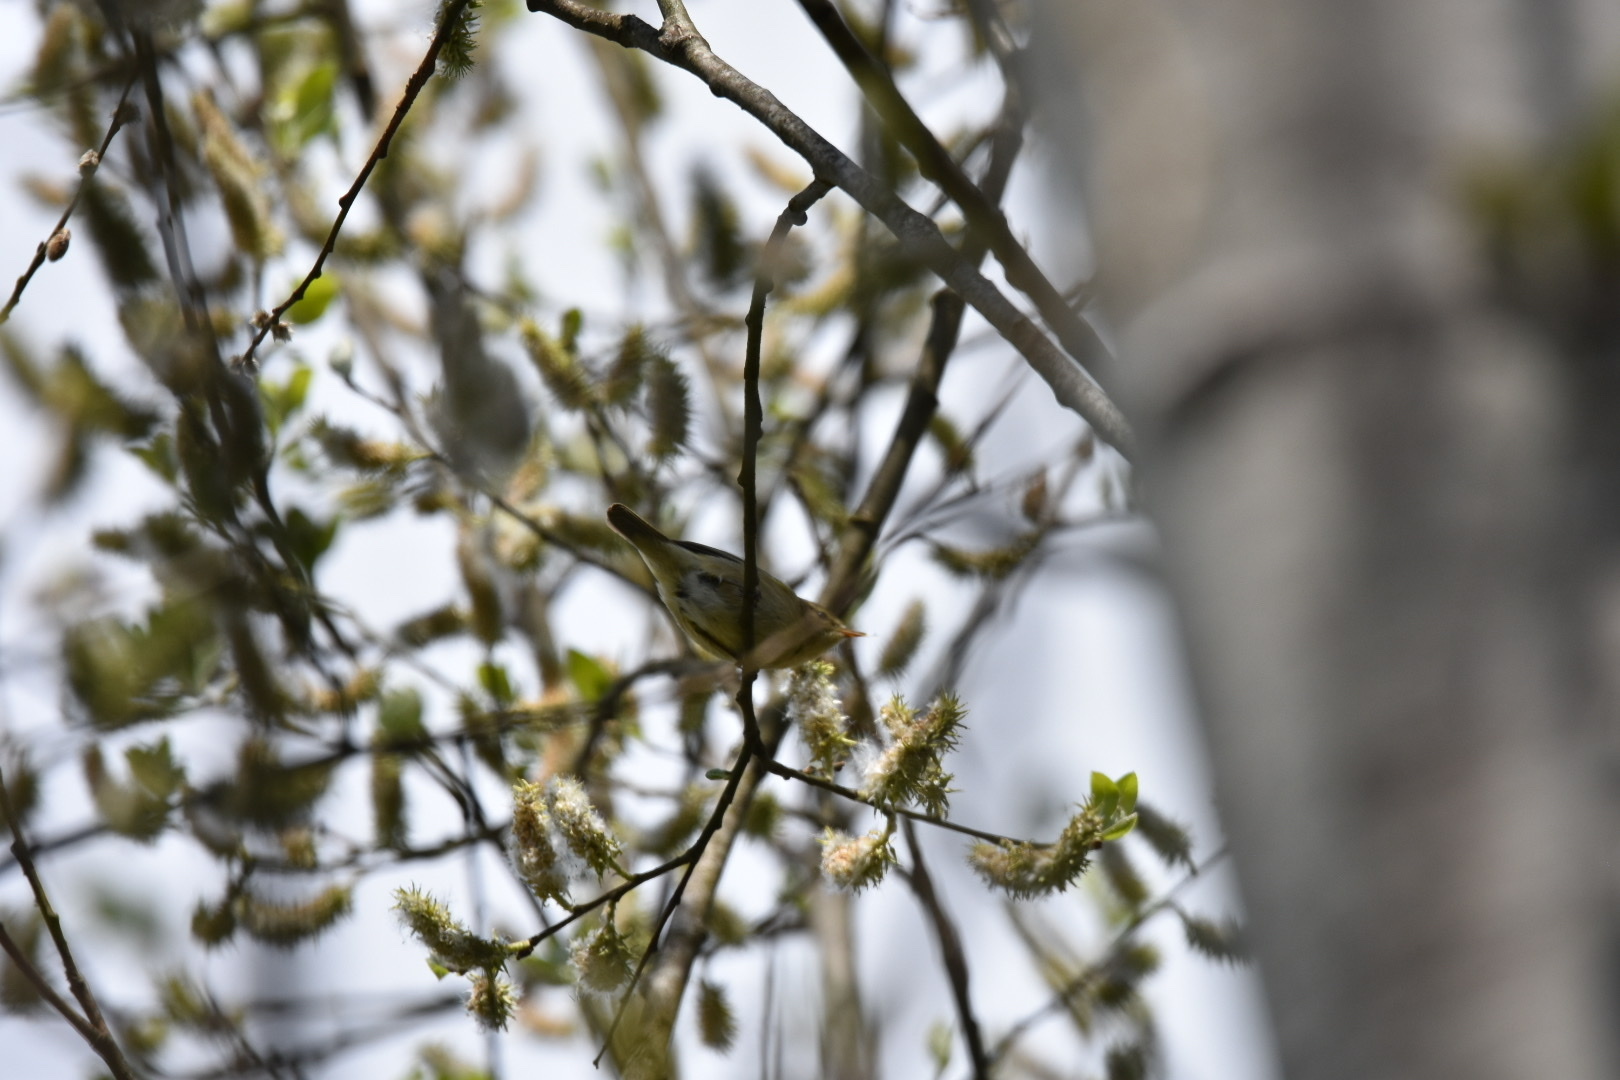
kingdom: Animalia
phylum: Chordata
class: Aves
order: Passeriformes
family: Phylloscopidae
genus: Phylloscopus
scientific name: Phylloscopus trochilus
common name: Willow warbler
